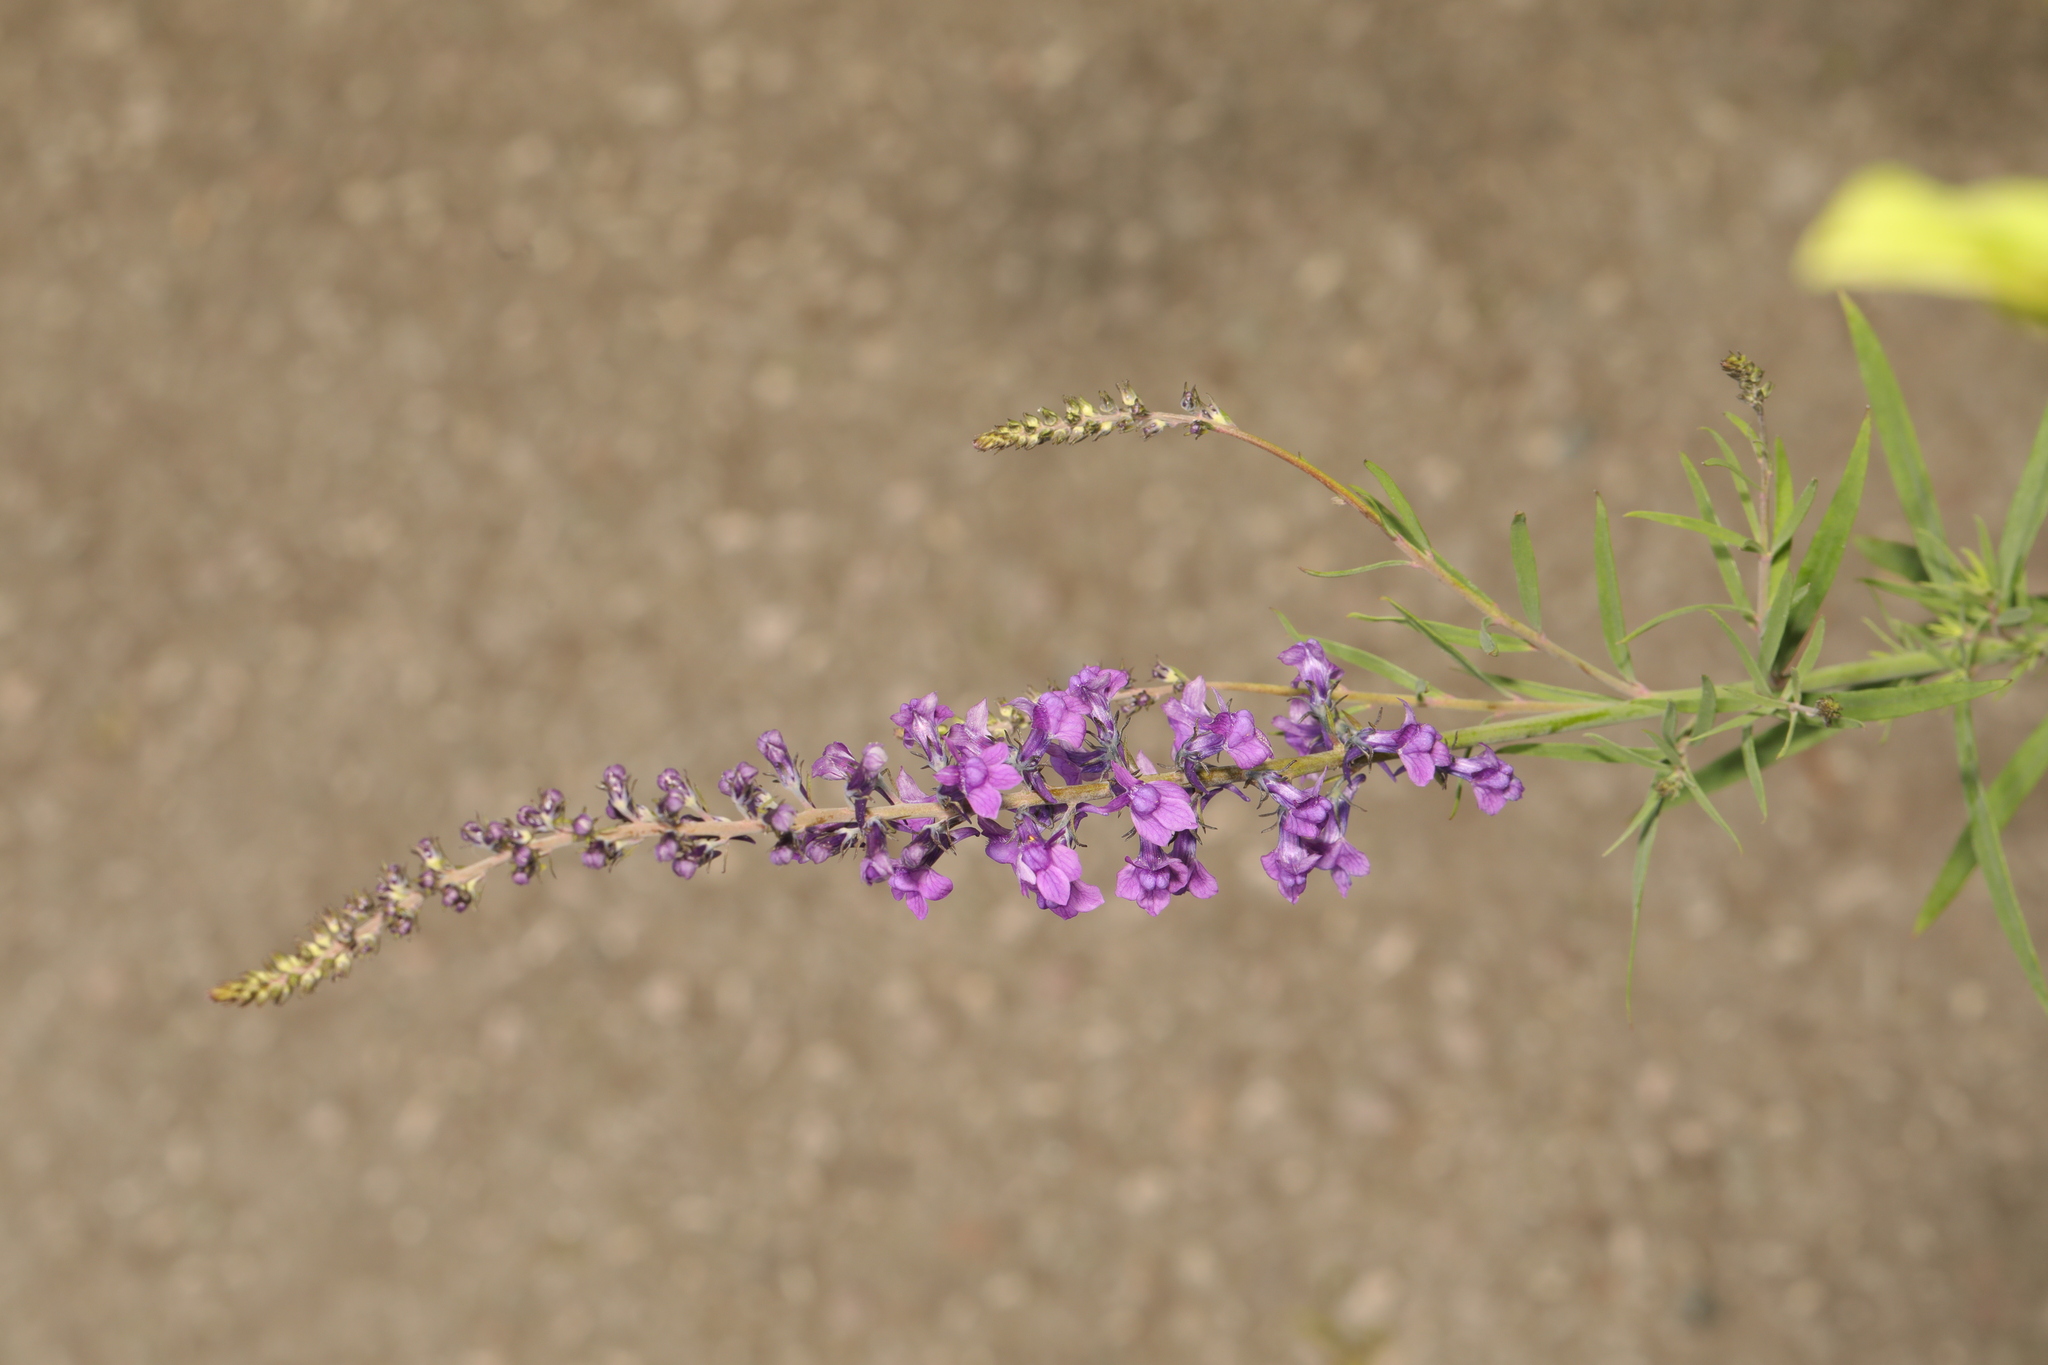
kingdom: Plantae
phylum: Tracheophyta
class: Magnoliopsida
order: Lamiales
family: Plantaginaceae
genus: Linaria
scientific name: Linaria purpurea
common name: Purple toadflax
